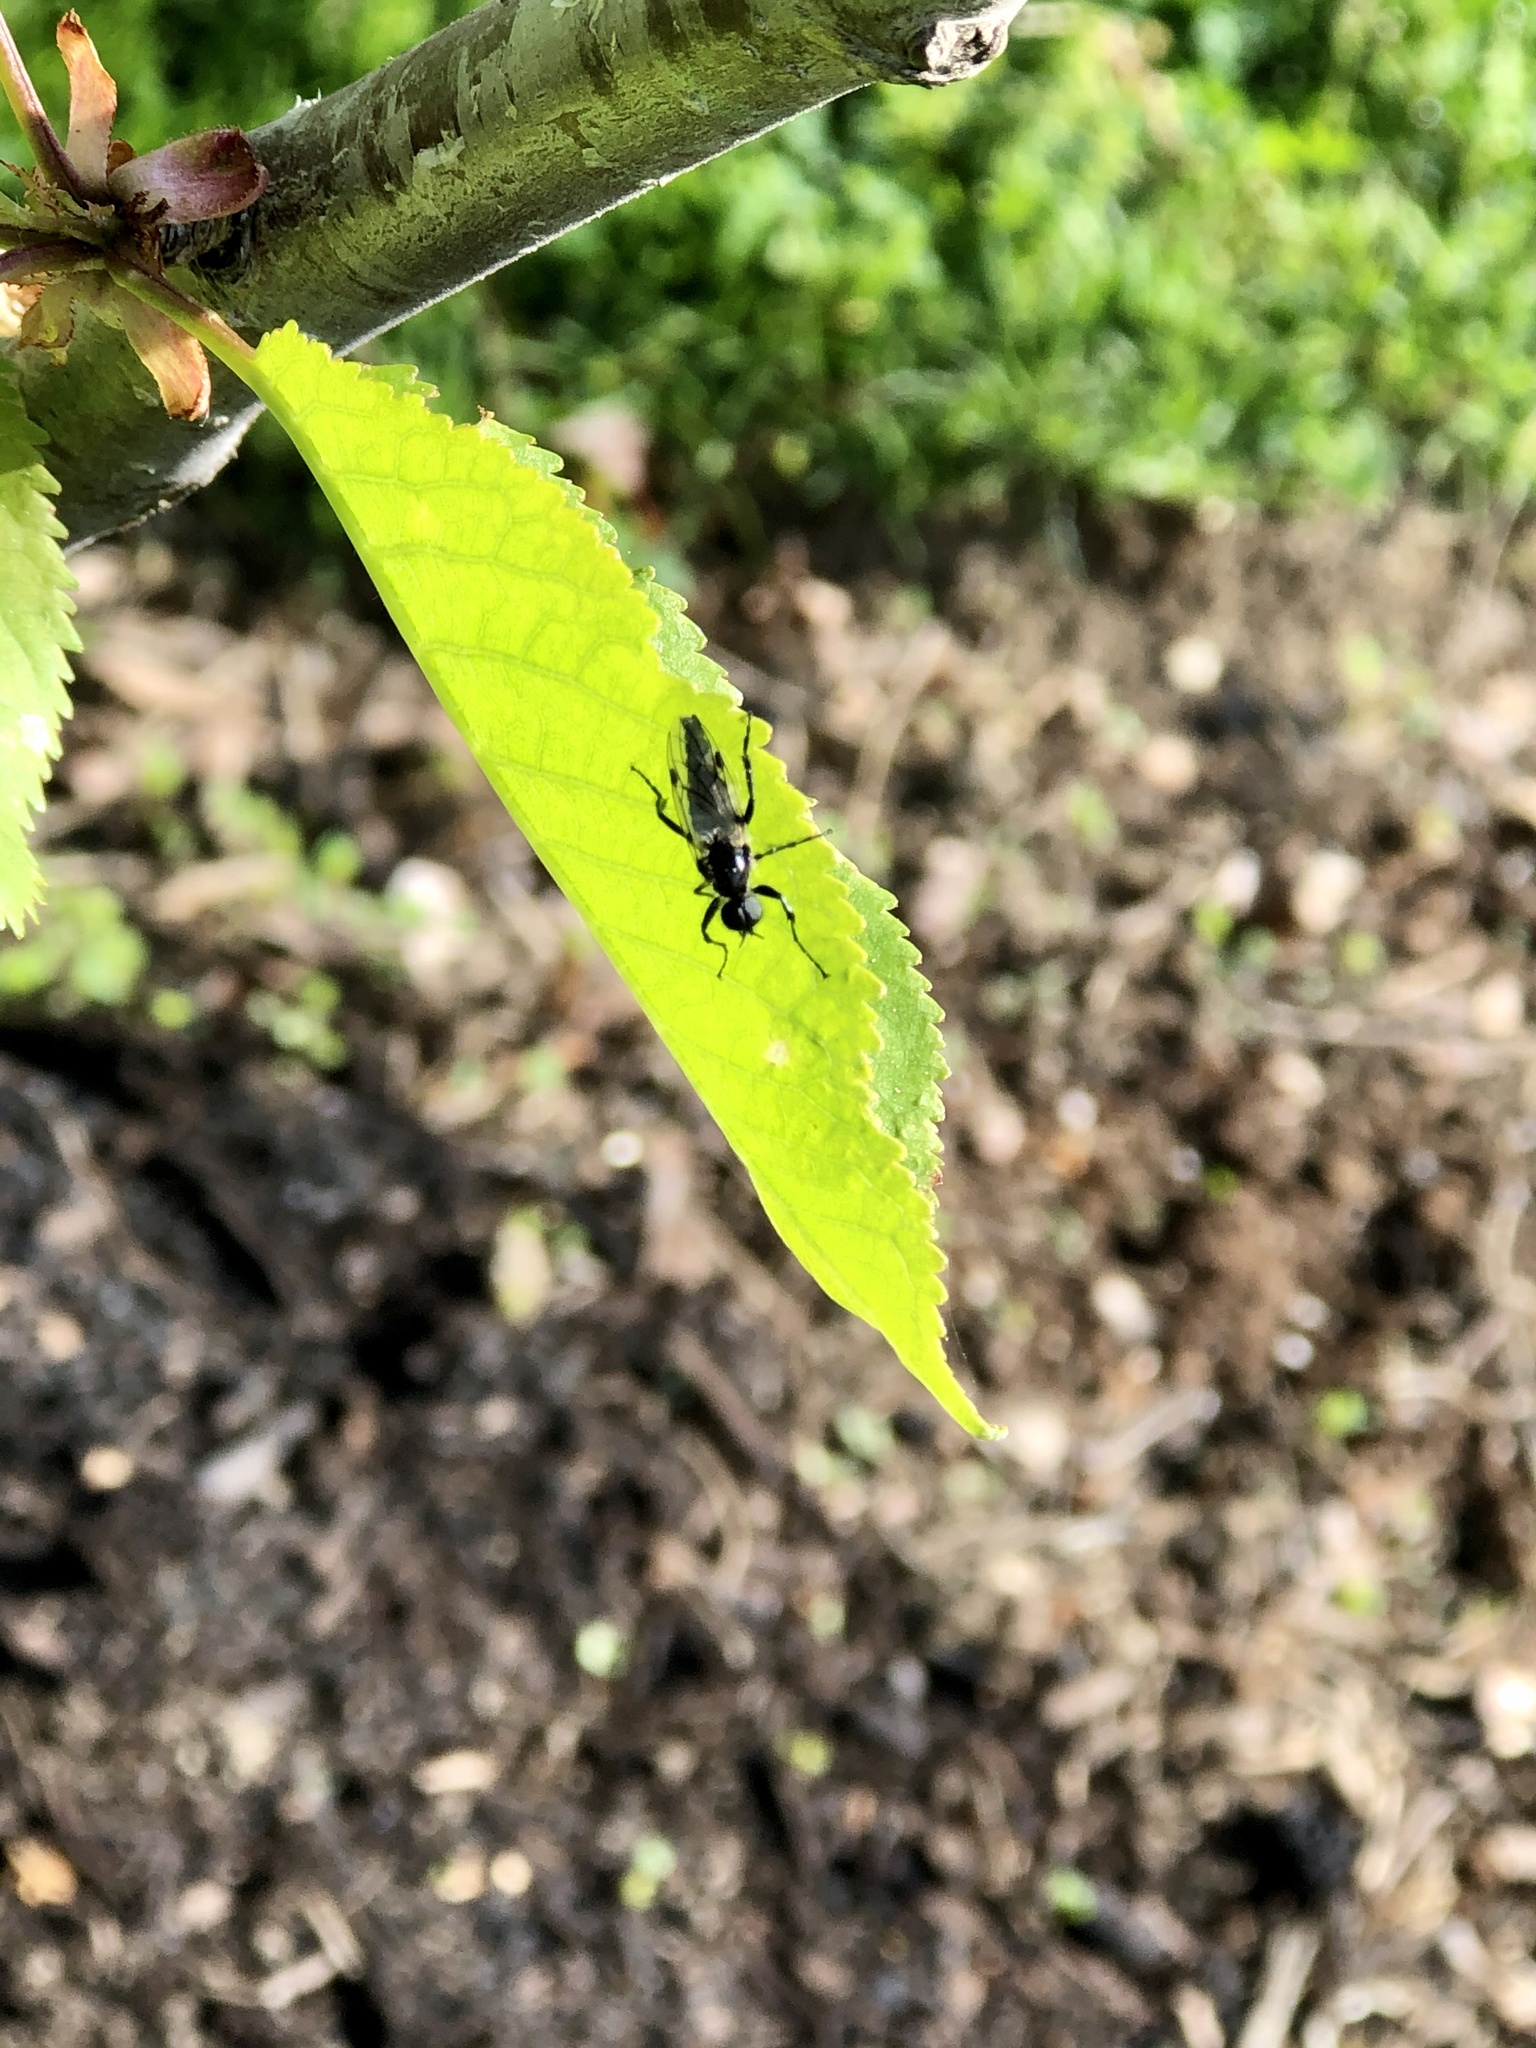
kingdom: Animalia
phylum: Arthropoda
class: Insecta
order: Diptera
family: Bibionidae
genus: Bibio
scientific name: Bibio albipennis
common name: White-winged march fly
